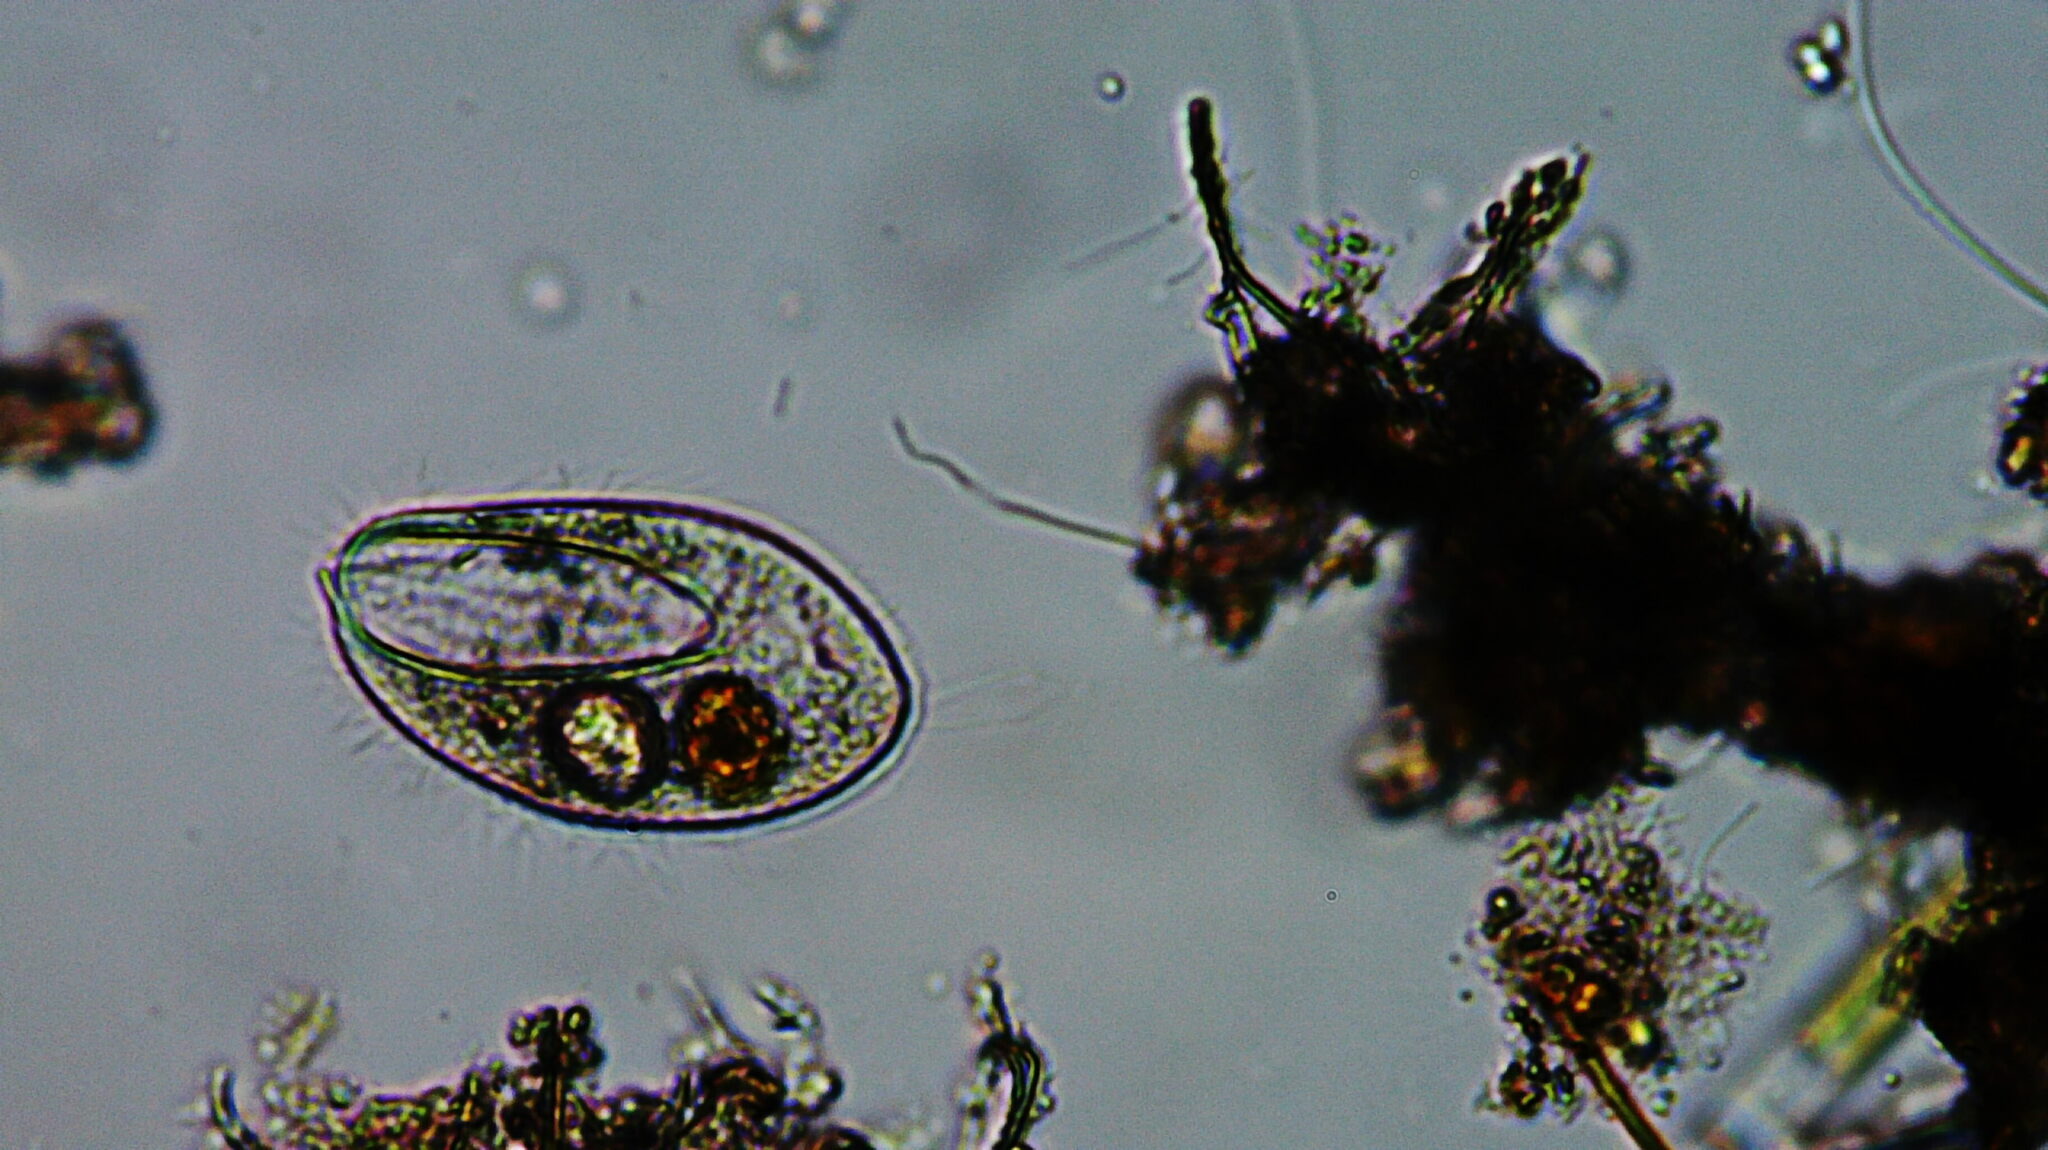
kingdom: Chromista
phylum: Ciliophora
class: Oligohymenophorea
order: Peniculida
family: Lembadionidae
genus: Lembadion
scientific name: Lembadion lucens
